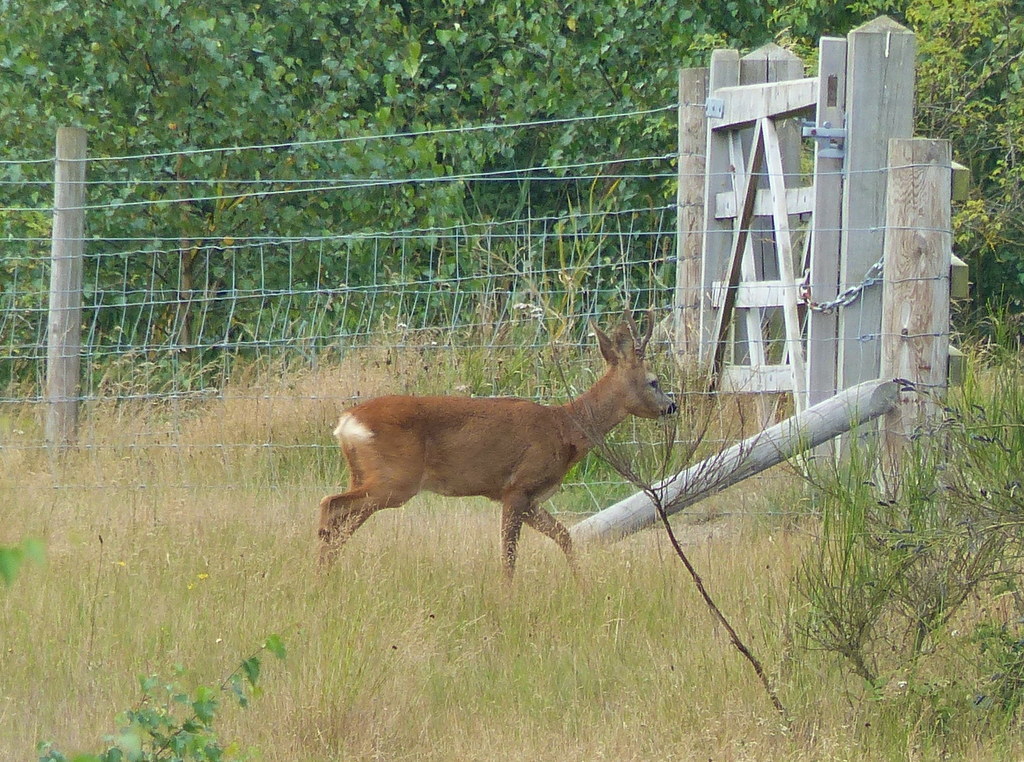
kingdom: Animalia
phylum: Chordata
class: Mammalia
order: Artiodactyla
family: Cervidae
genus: Capreolus
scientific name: Capreolus capreolus
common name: Western roe deer
